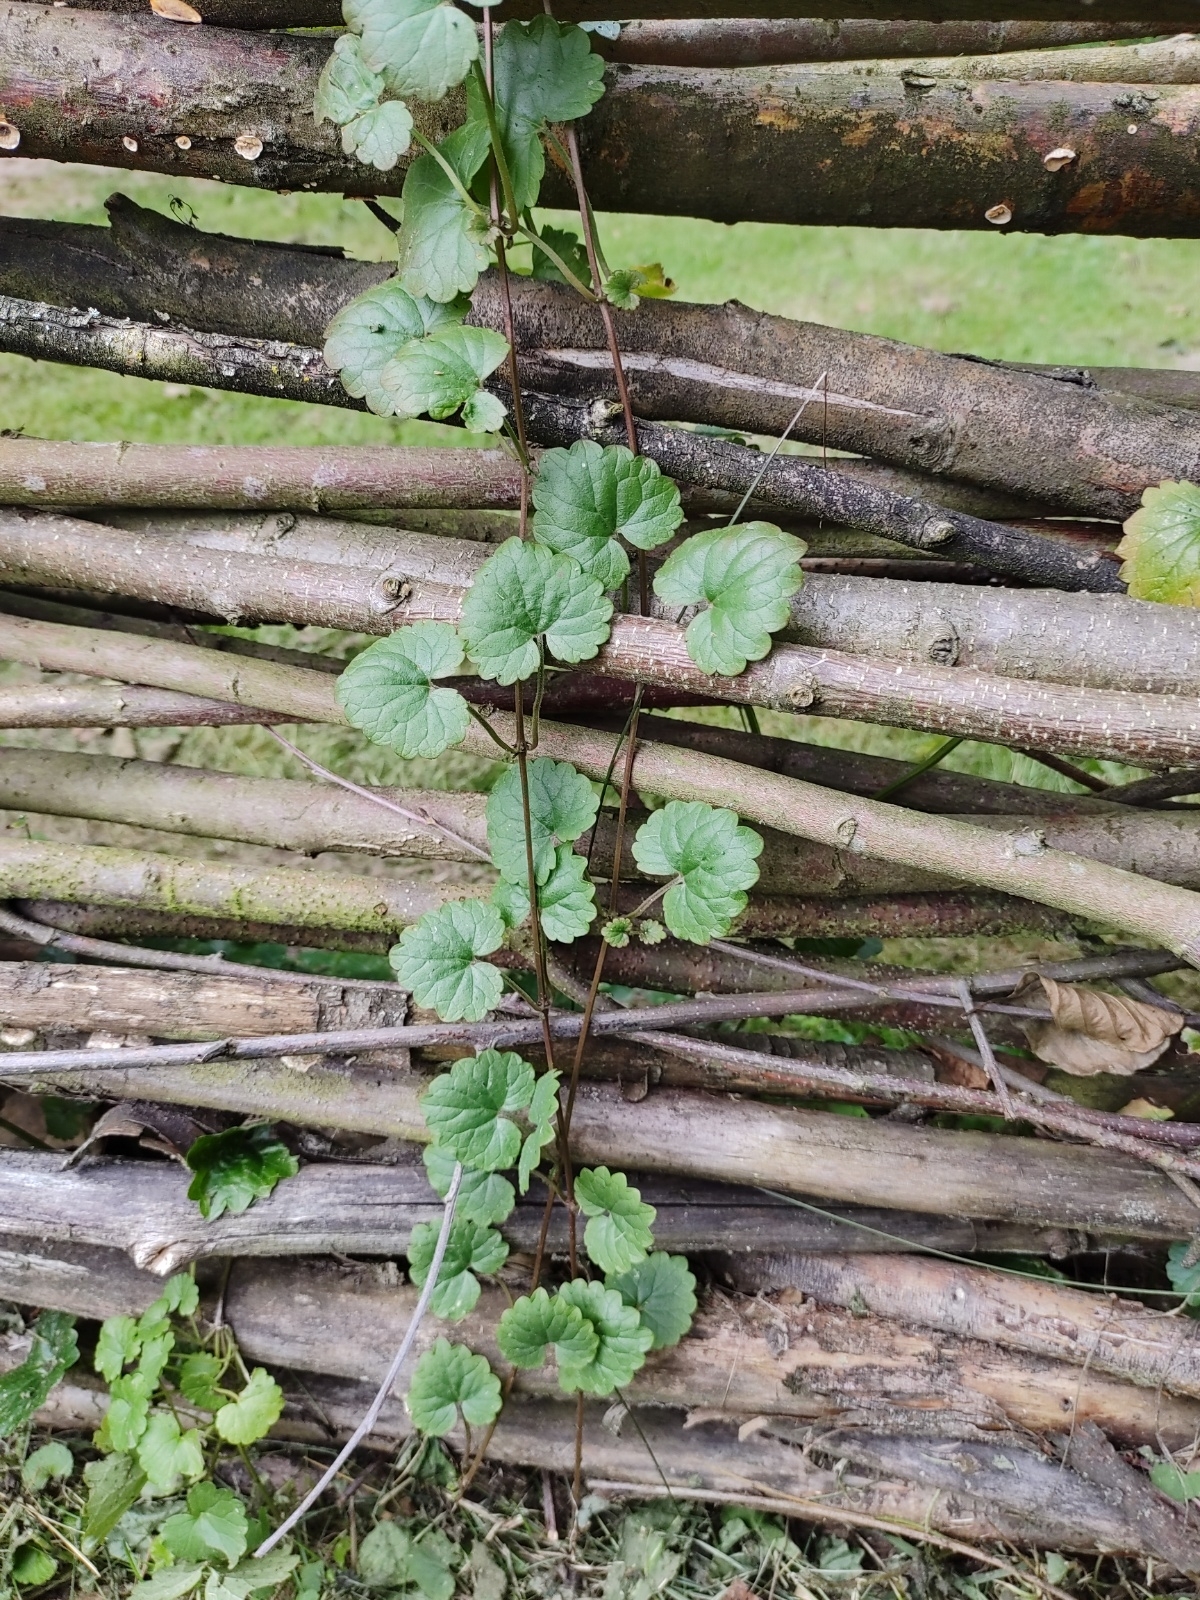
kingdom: Plantae
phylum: Tracheophyta
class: Magnoliopsida
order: Lamiales
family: Lamiaceae
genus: Glechoma
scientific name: Glechoma hederacea
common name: Ground ivy
